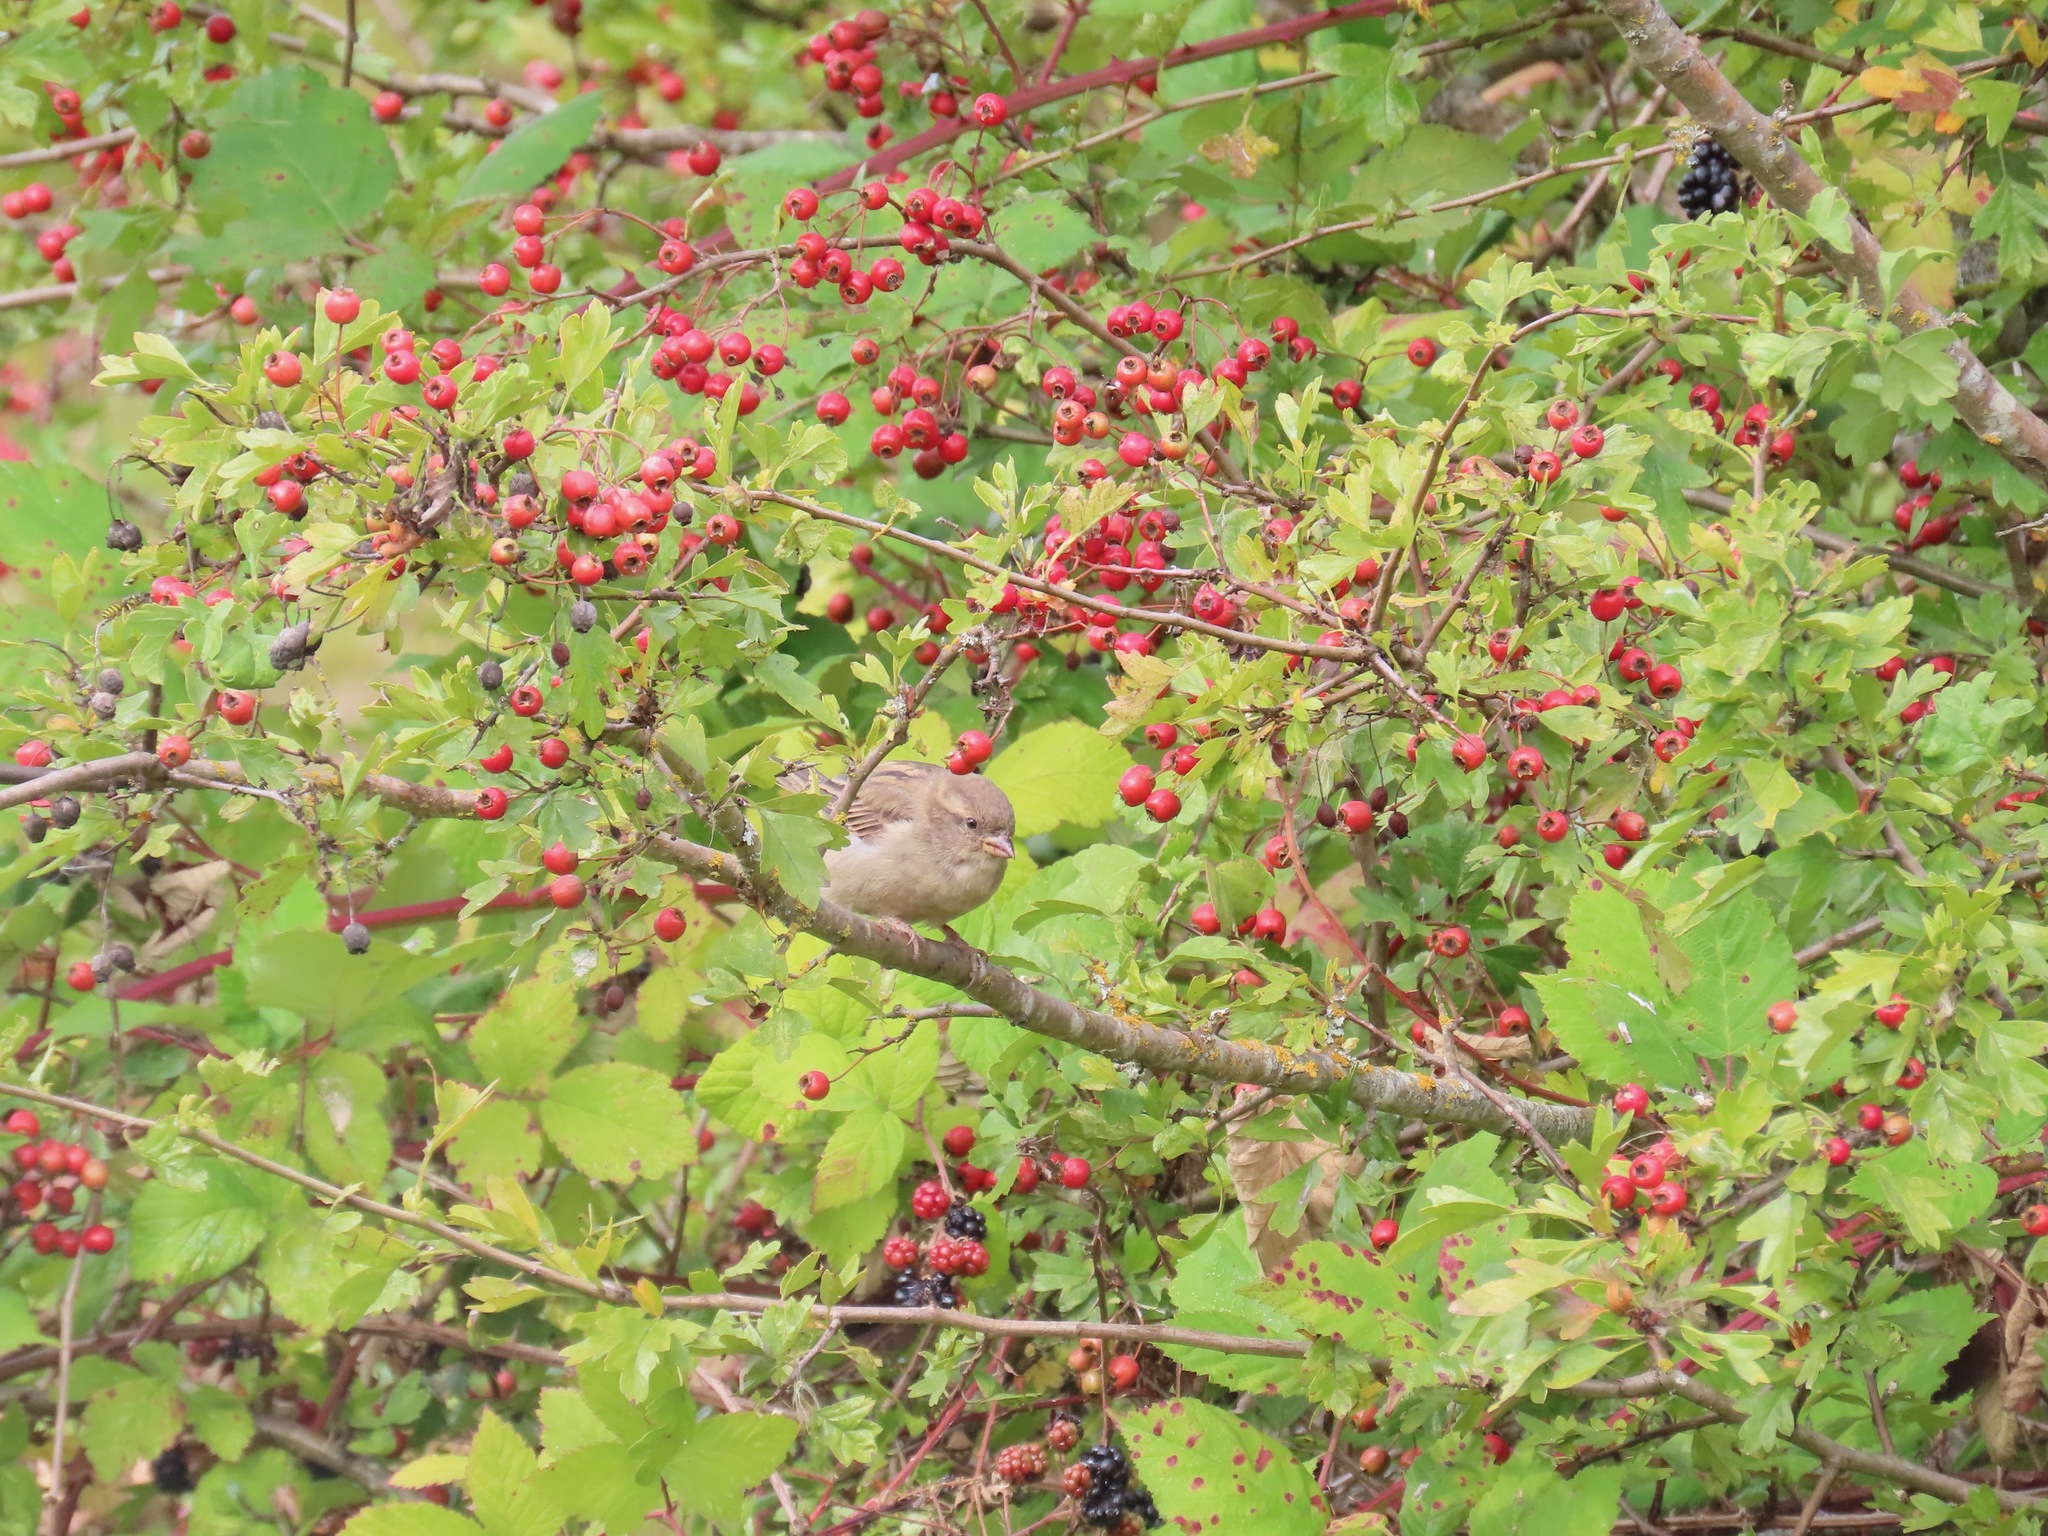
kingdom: Animalia
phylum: Chordata
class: Aves
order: Passeriformes
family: Passeridae
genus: Passer
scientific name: Passer domesticus
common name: House sparrow
